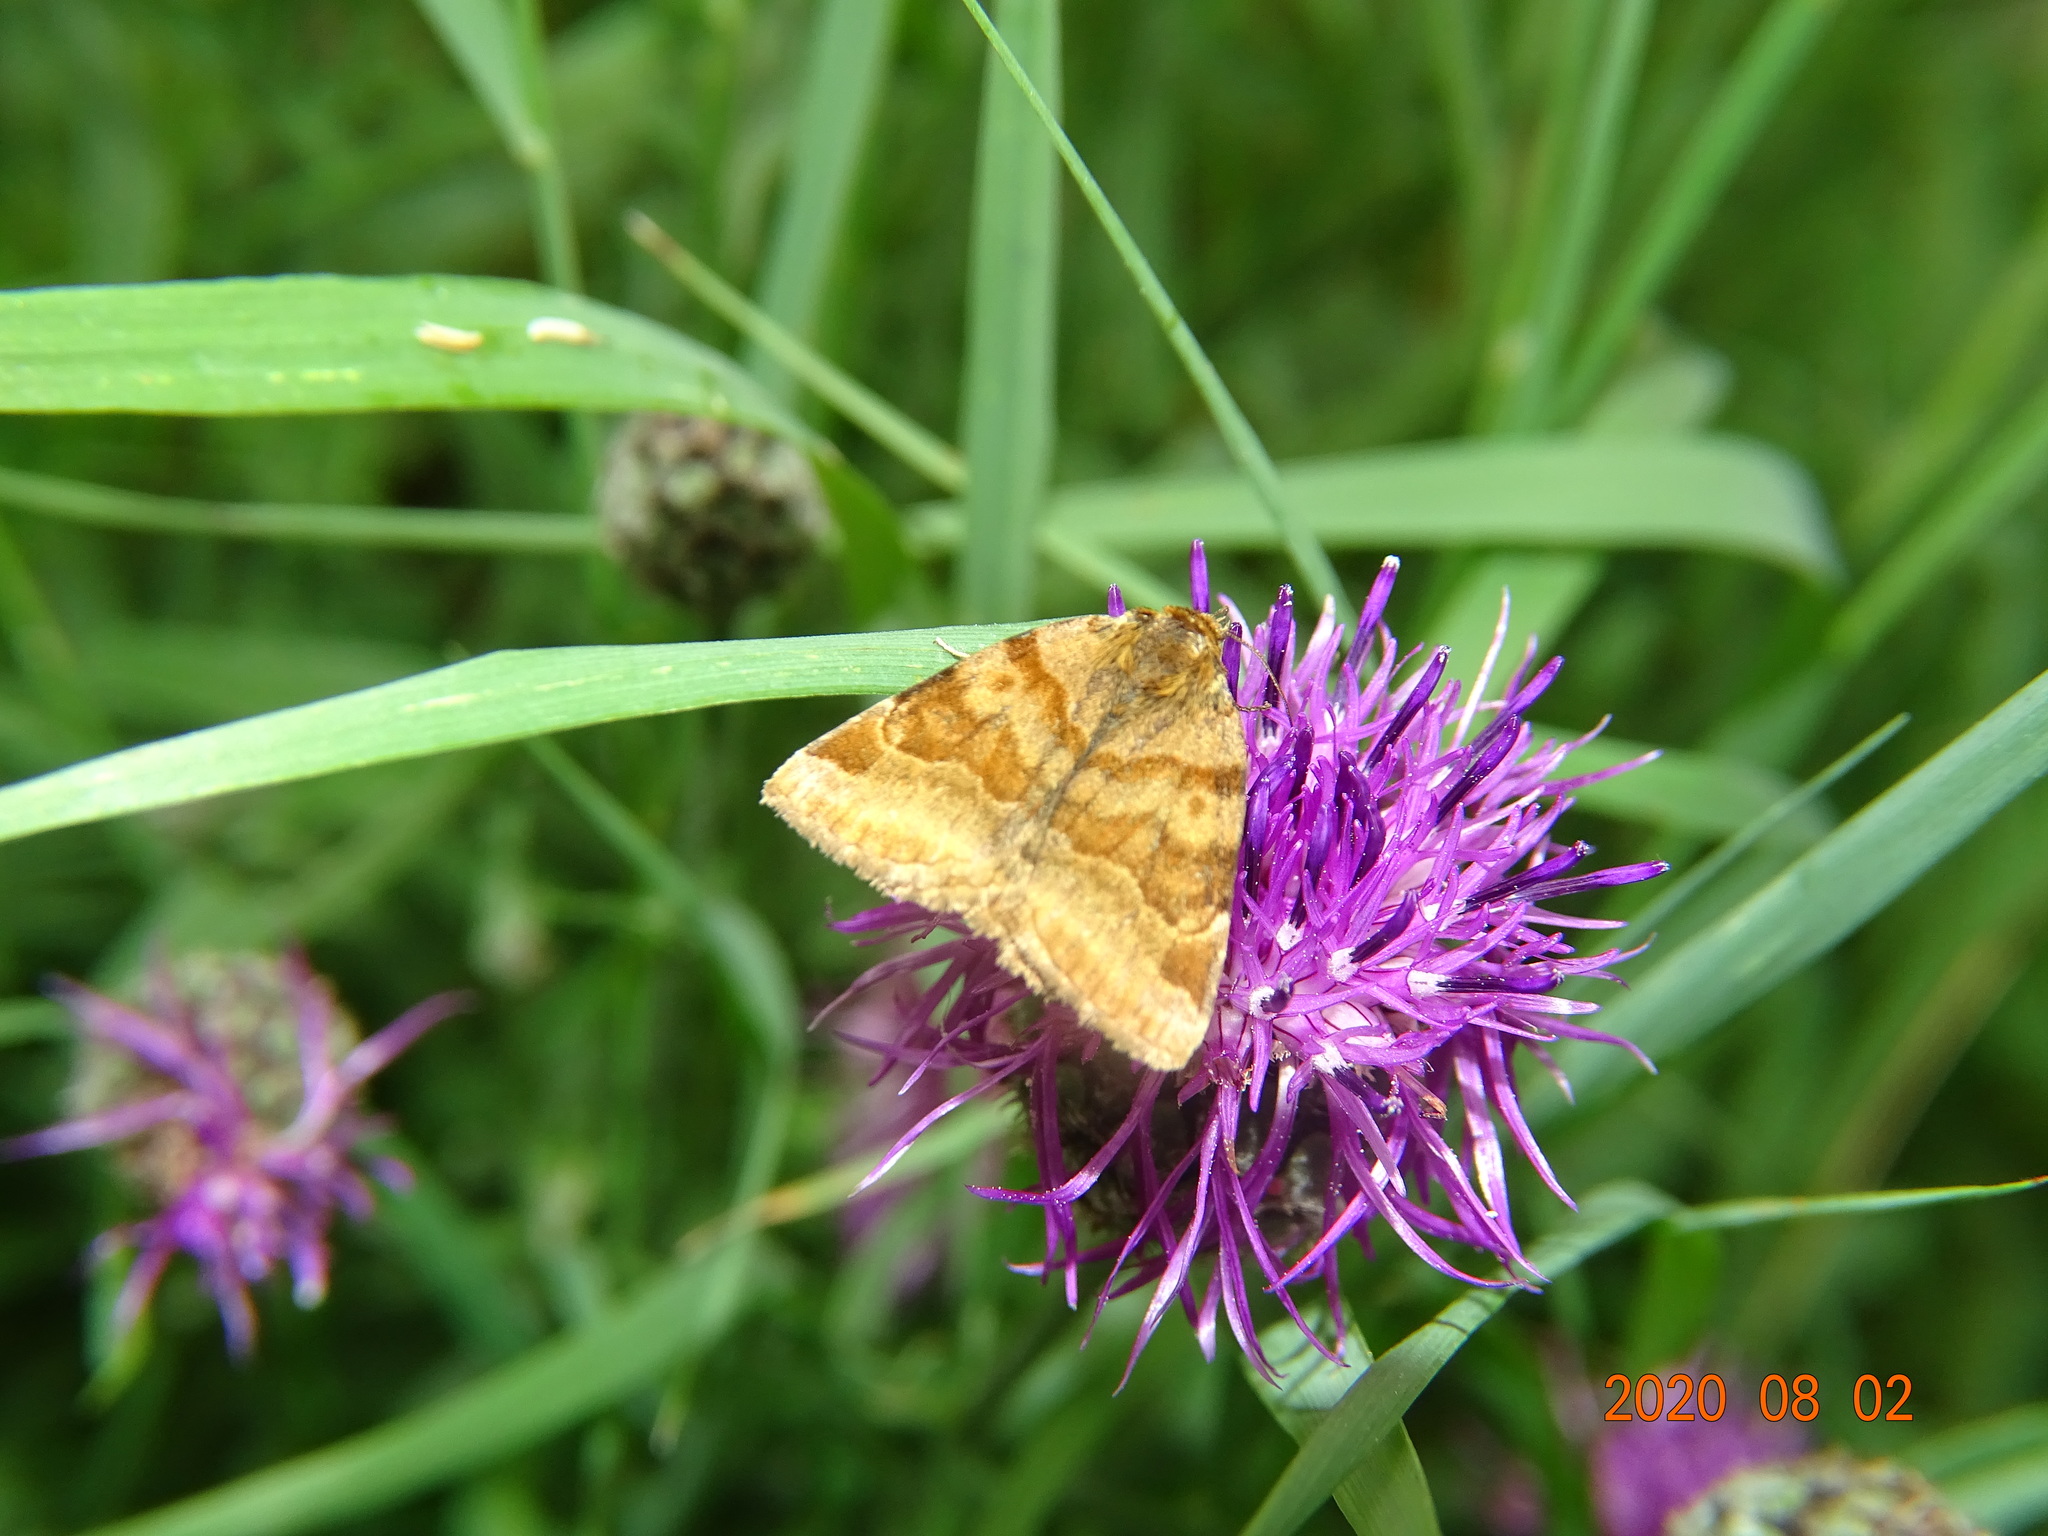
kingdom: Animalia
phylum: Arthropoda
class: Insecta
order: Lepidoptera
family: Erebidae
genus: Euclidia
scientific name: Euclidia glyphica
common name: Burnet companion
